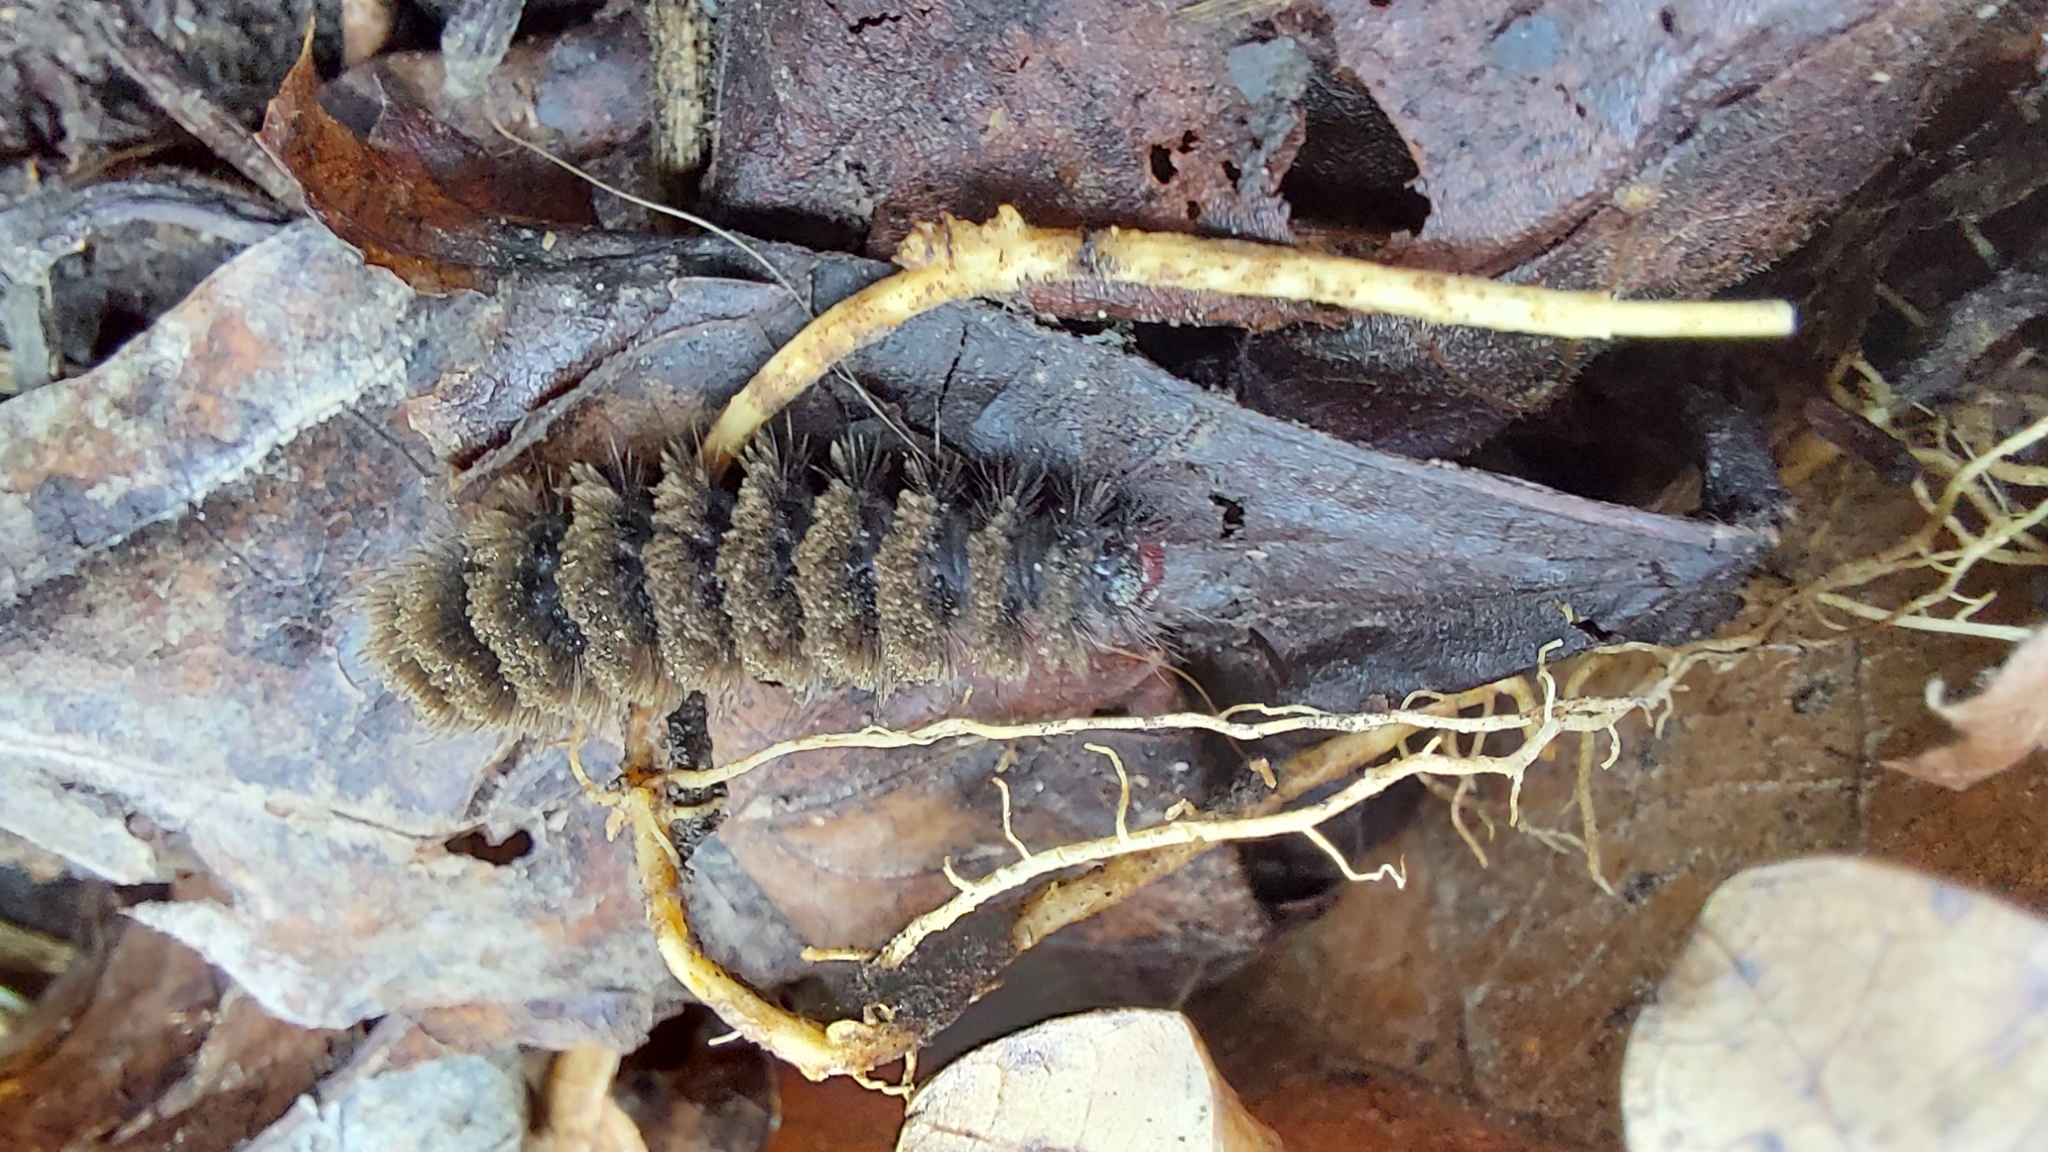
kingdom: Animalia
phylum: Arthropoda
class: Insecta
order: Lepidoptera
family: Erebidae
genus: Amata
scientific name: Amata phegea
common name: Nine-spotted
